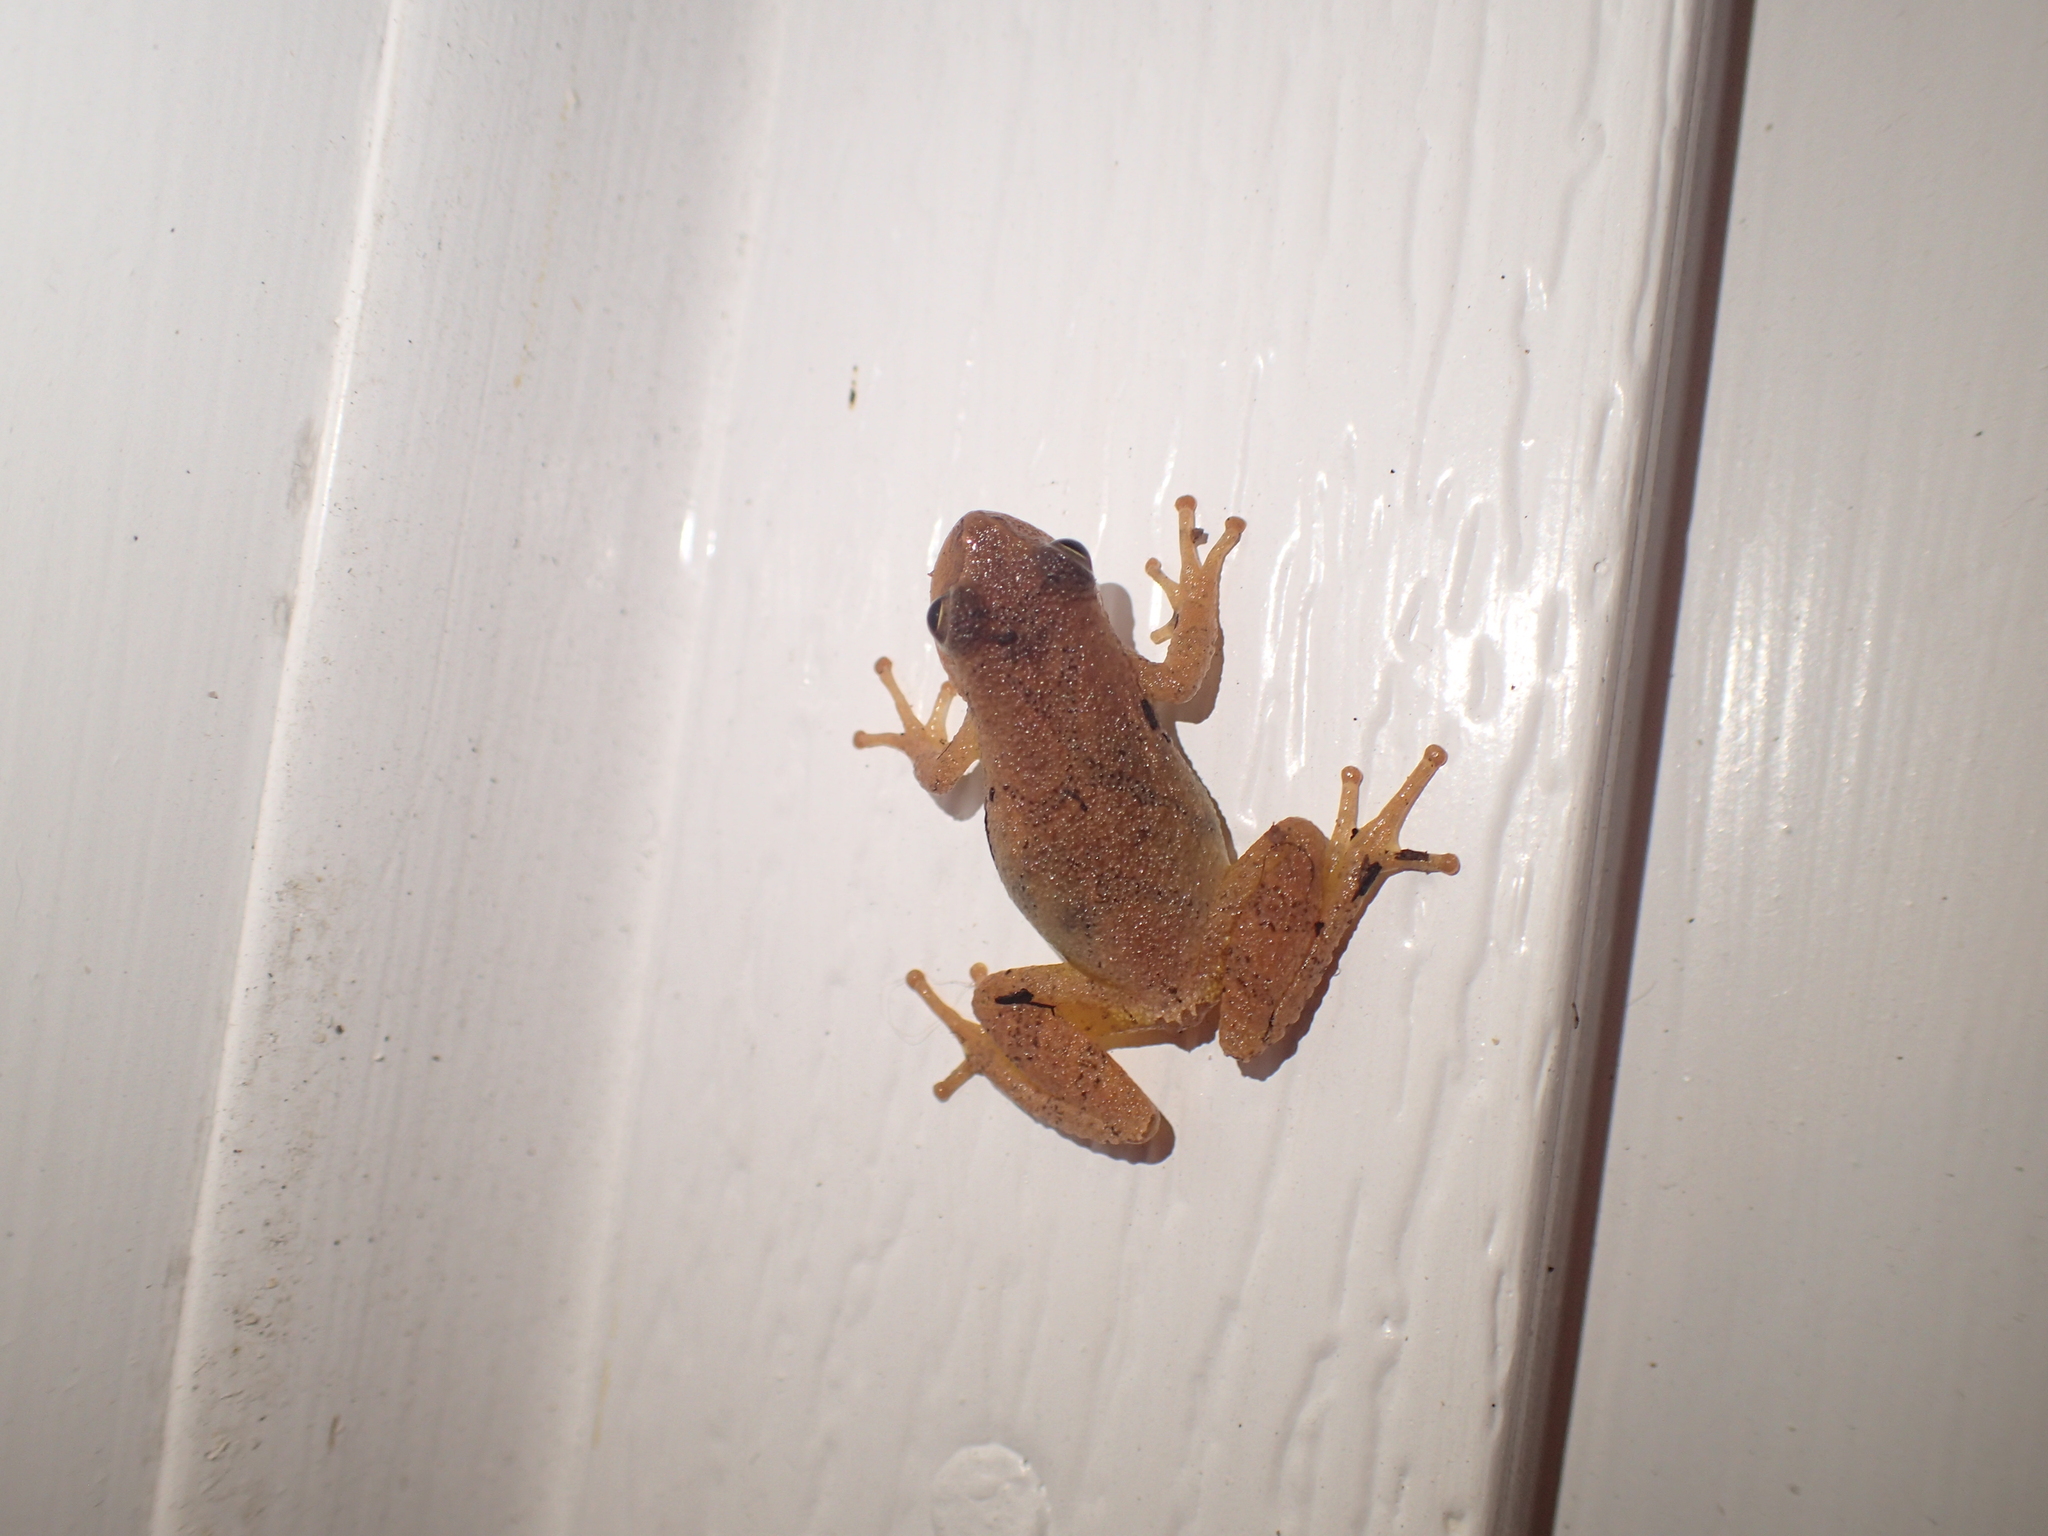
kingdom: Animalia
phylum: Chordata
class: Amphibia
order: Anura
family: Hylidae
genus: Pseudacris
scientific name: Pseudacris crucifer
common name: Spring peeper
